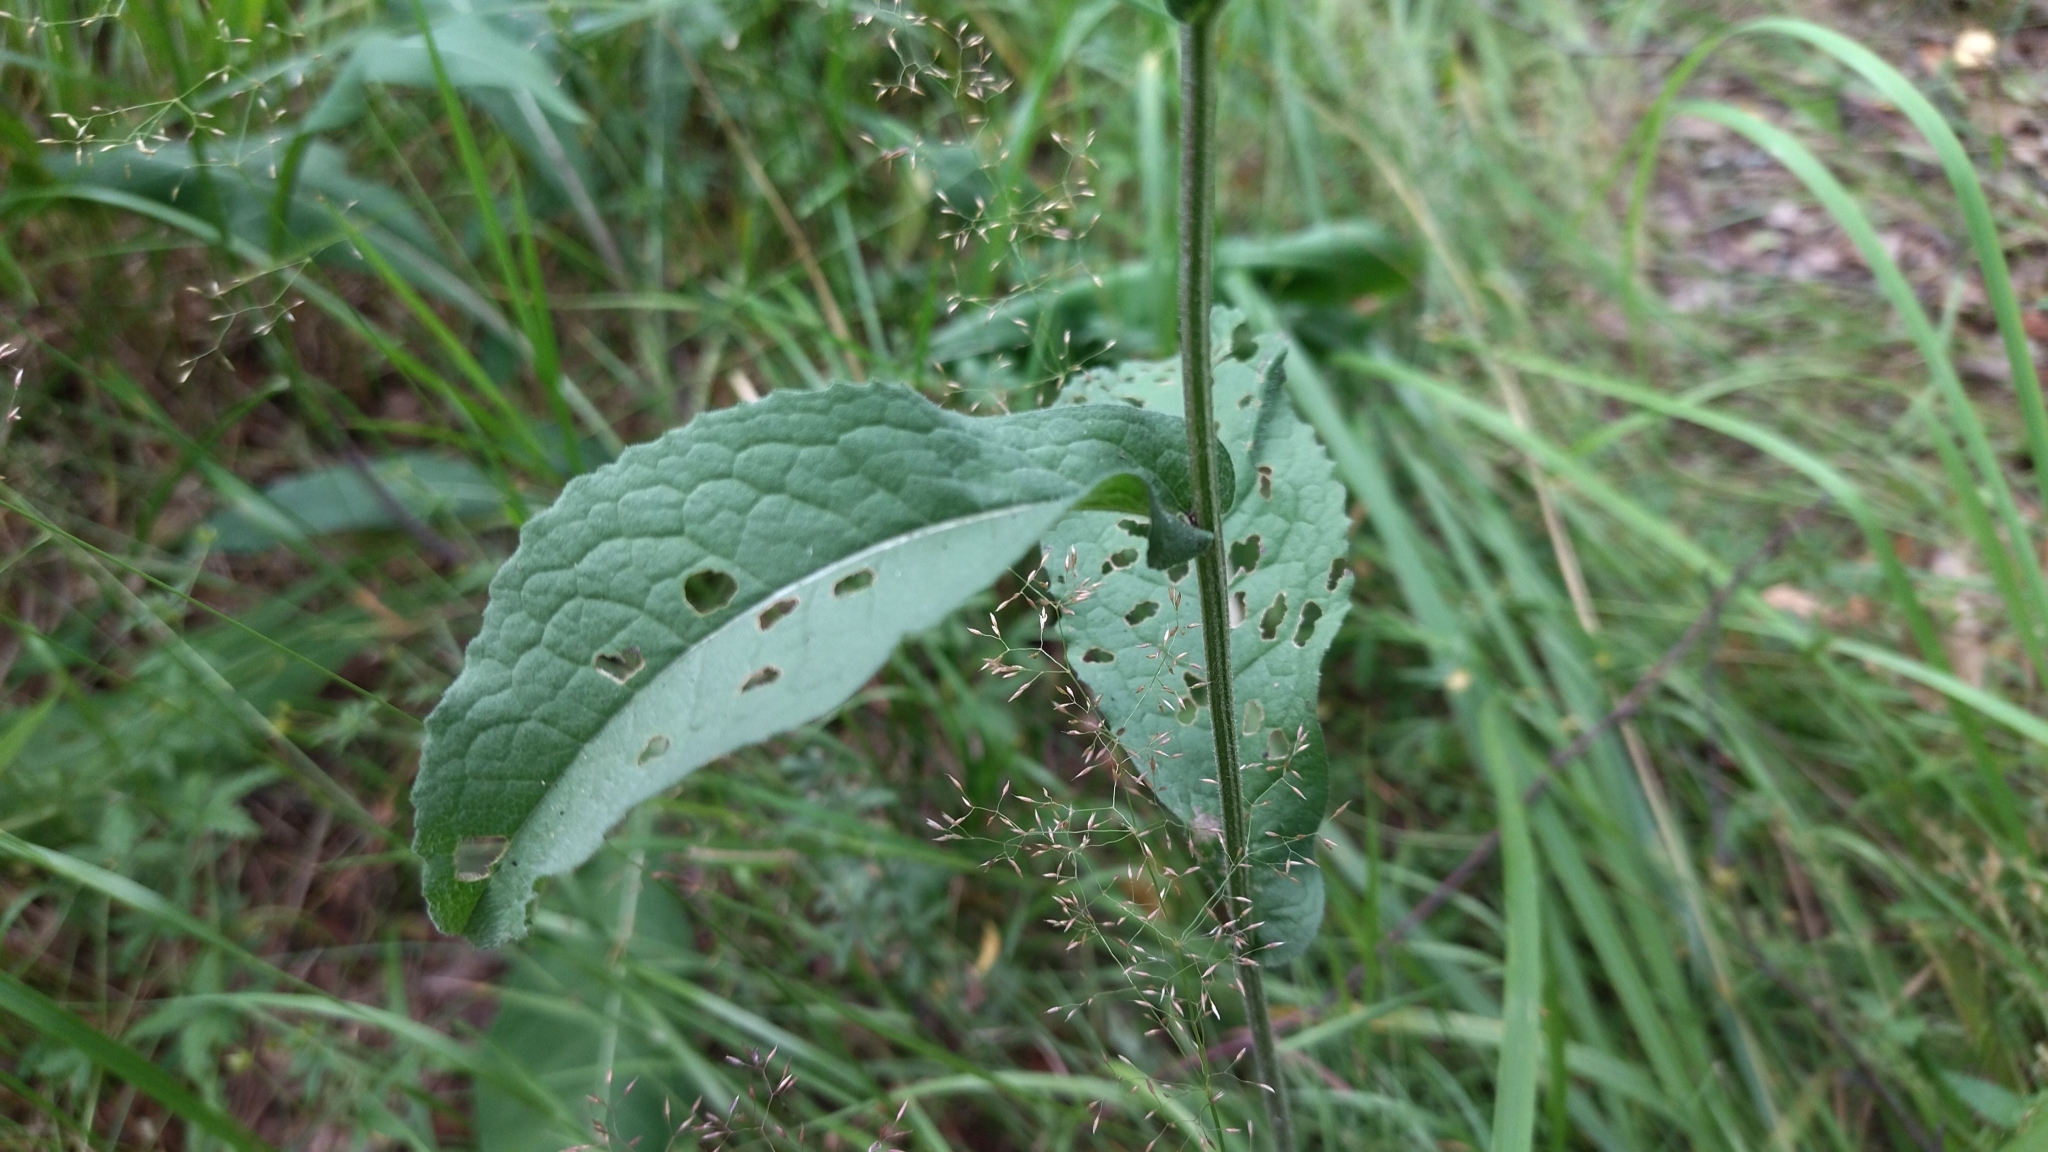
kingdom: Plantae
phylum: Tracheophyta
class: Magnoliopsida
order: Asterales
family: Asteraceae
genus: Centaurea
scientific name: Centaurea pseudophrygia
